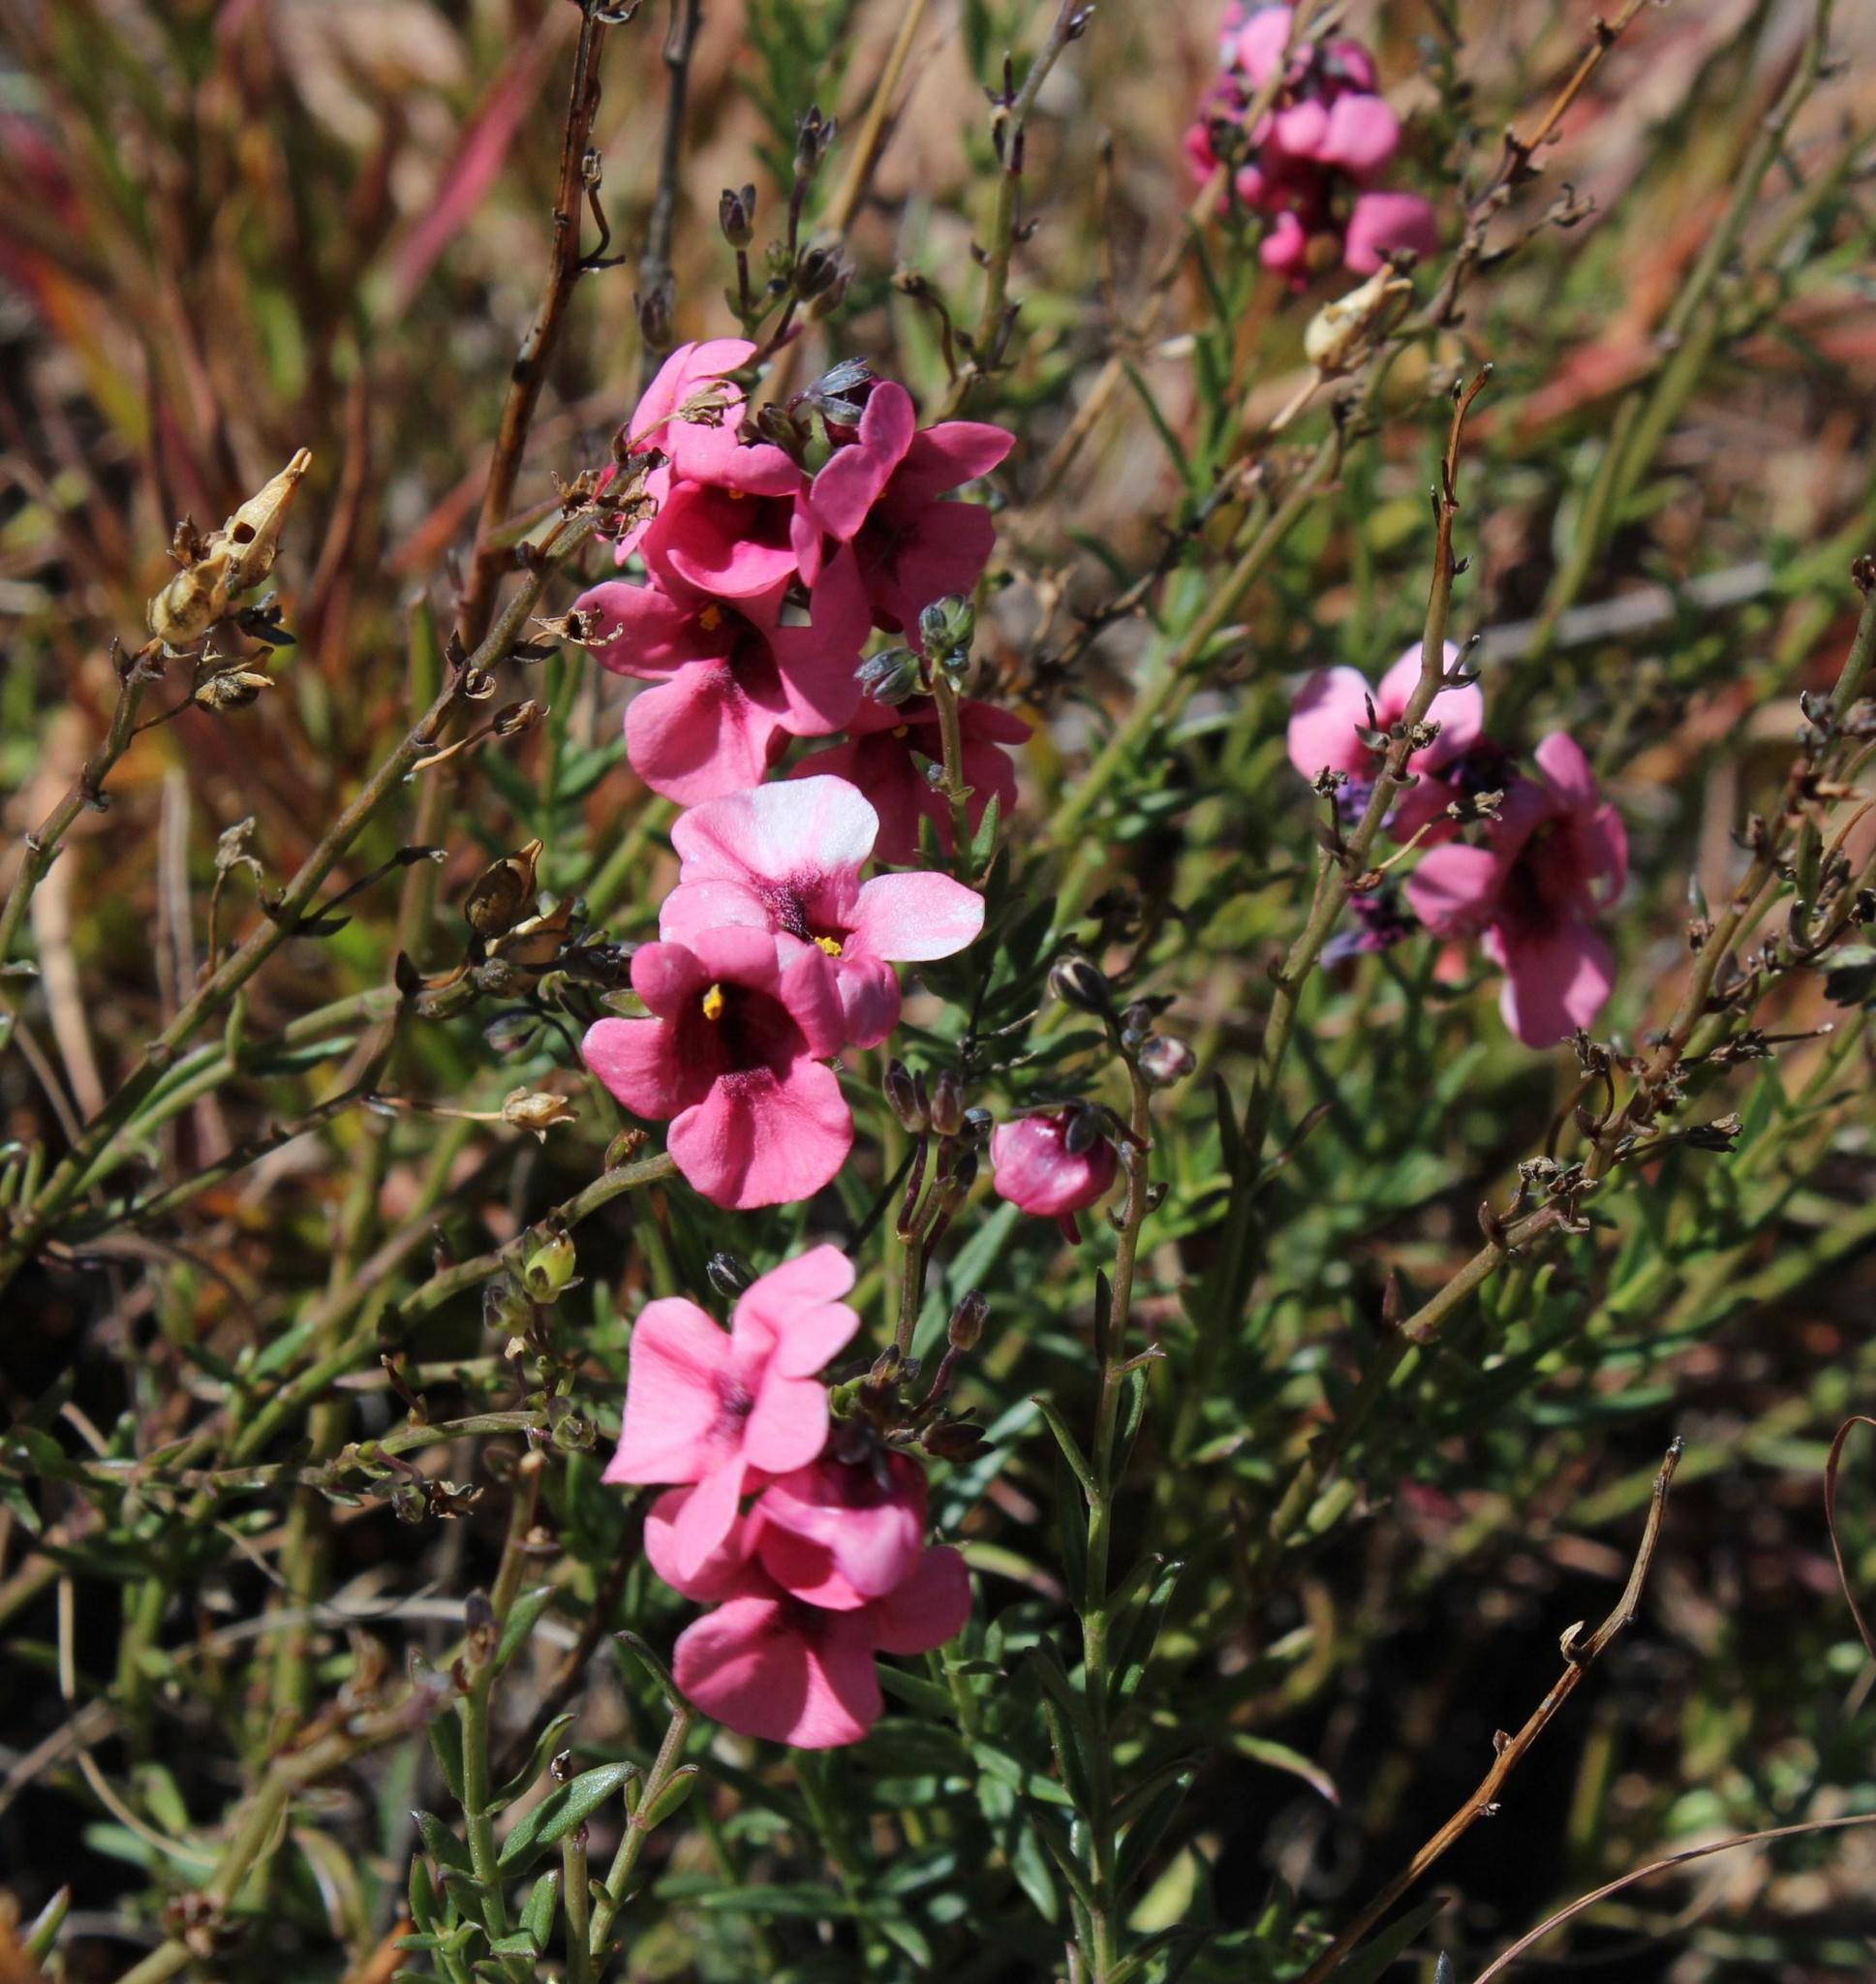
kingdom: Plantae
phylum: Tracheophyta
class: Magnoliopsida
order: Lamiales
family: Scrophulariaceae
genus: Diascia
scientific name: Diascia integerrima
